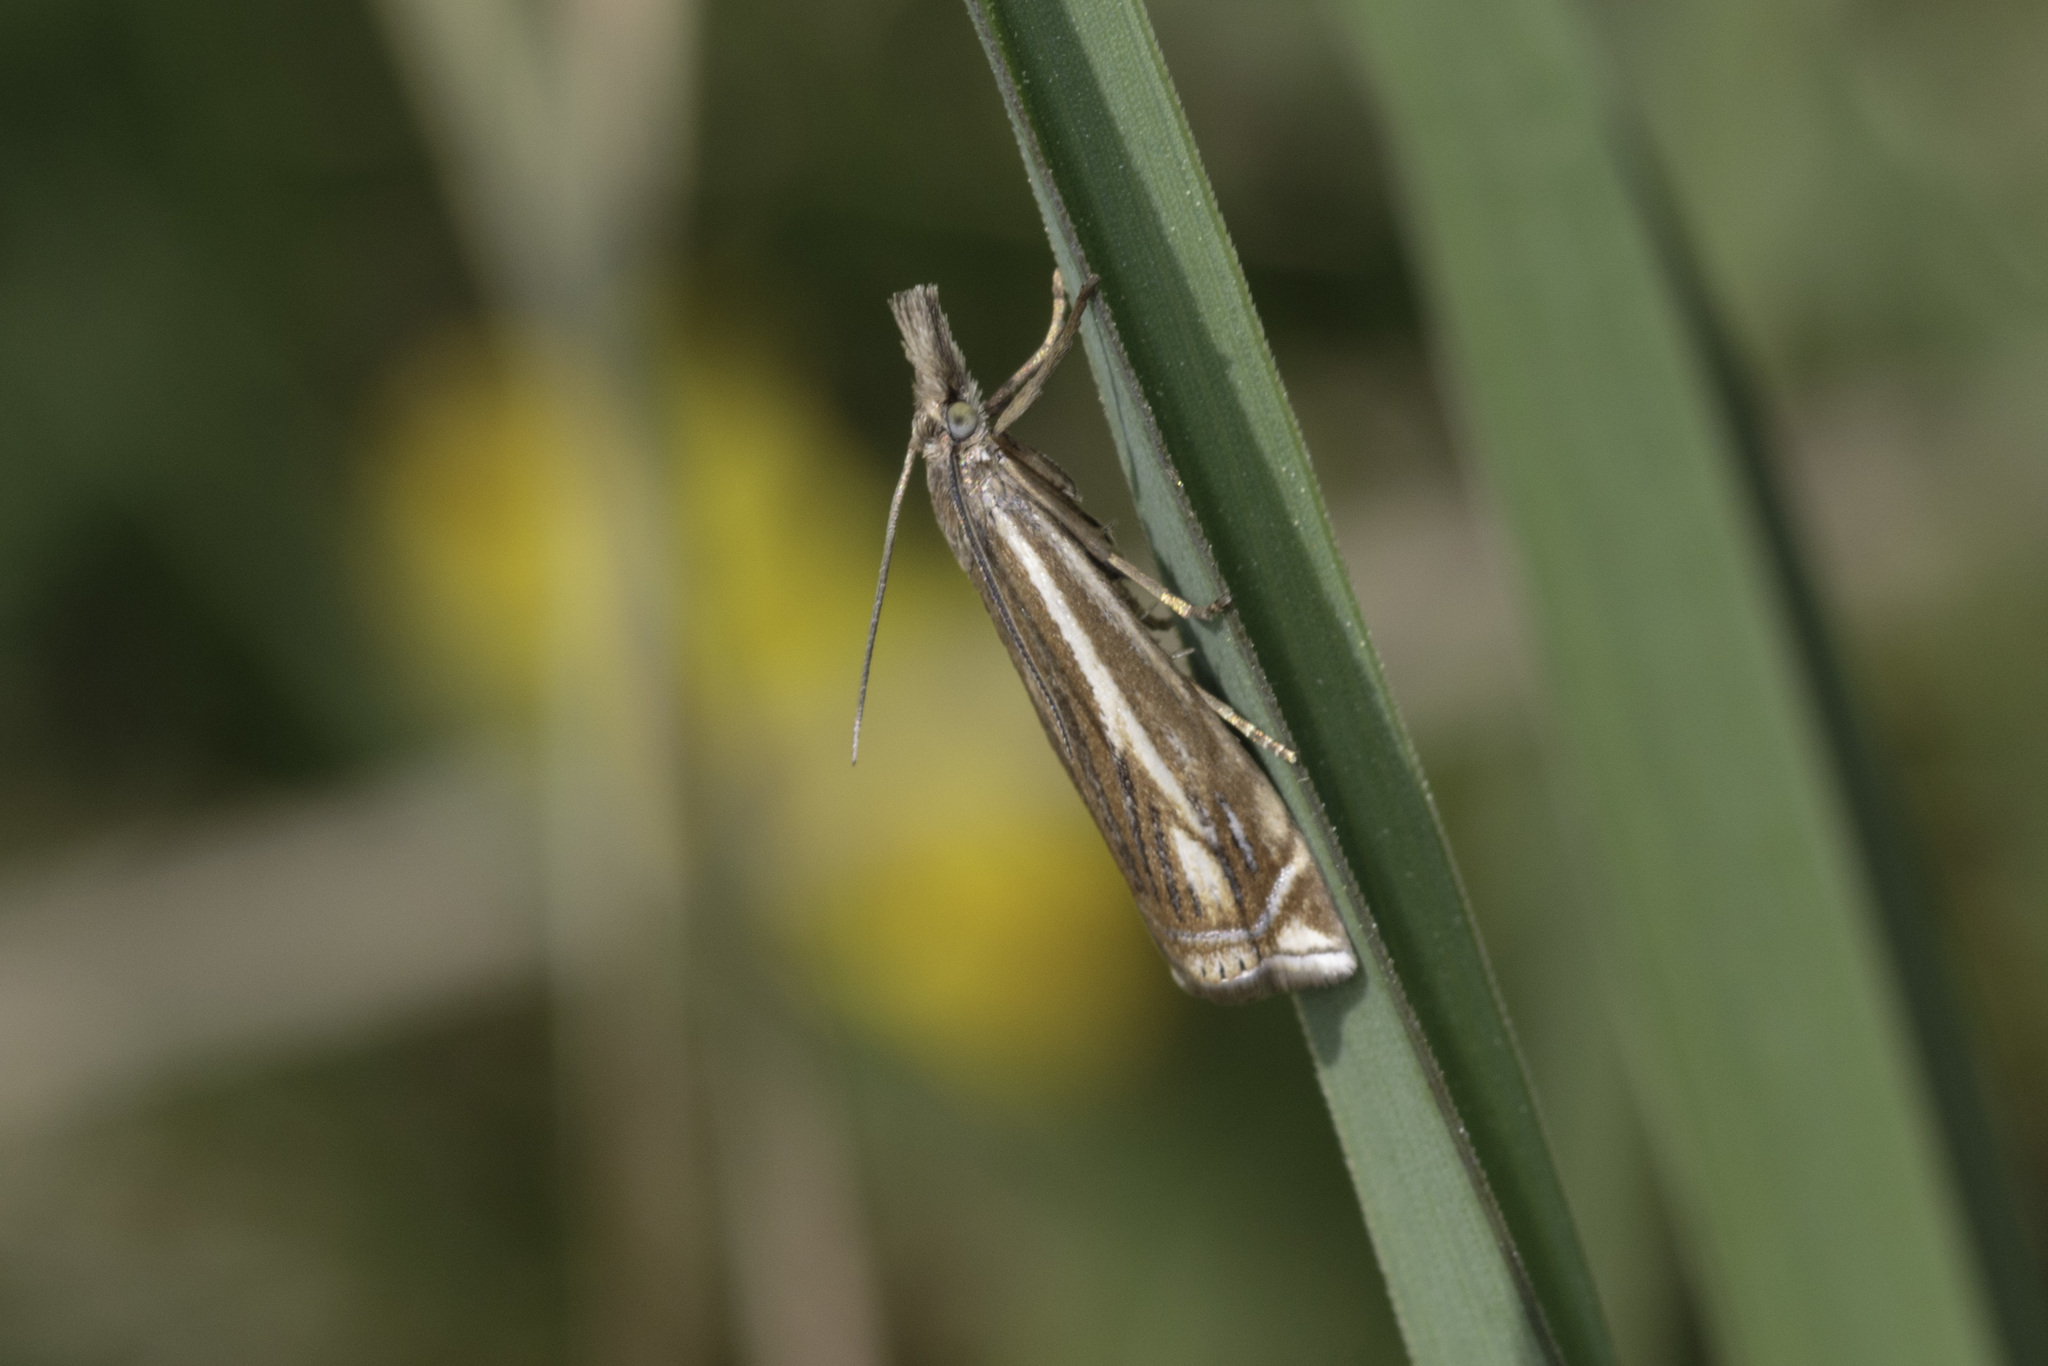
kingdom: Animalia
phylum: Arthropoda
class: Insecta
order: Lepidoptera
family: Crambidae
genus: Crambus
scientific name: Crambus nemorella
